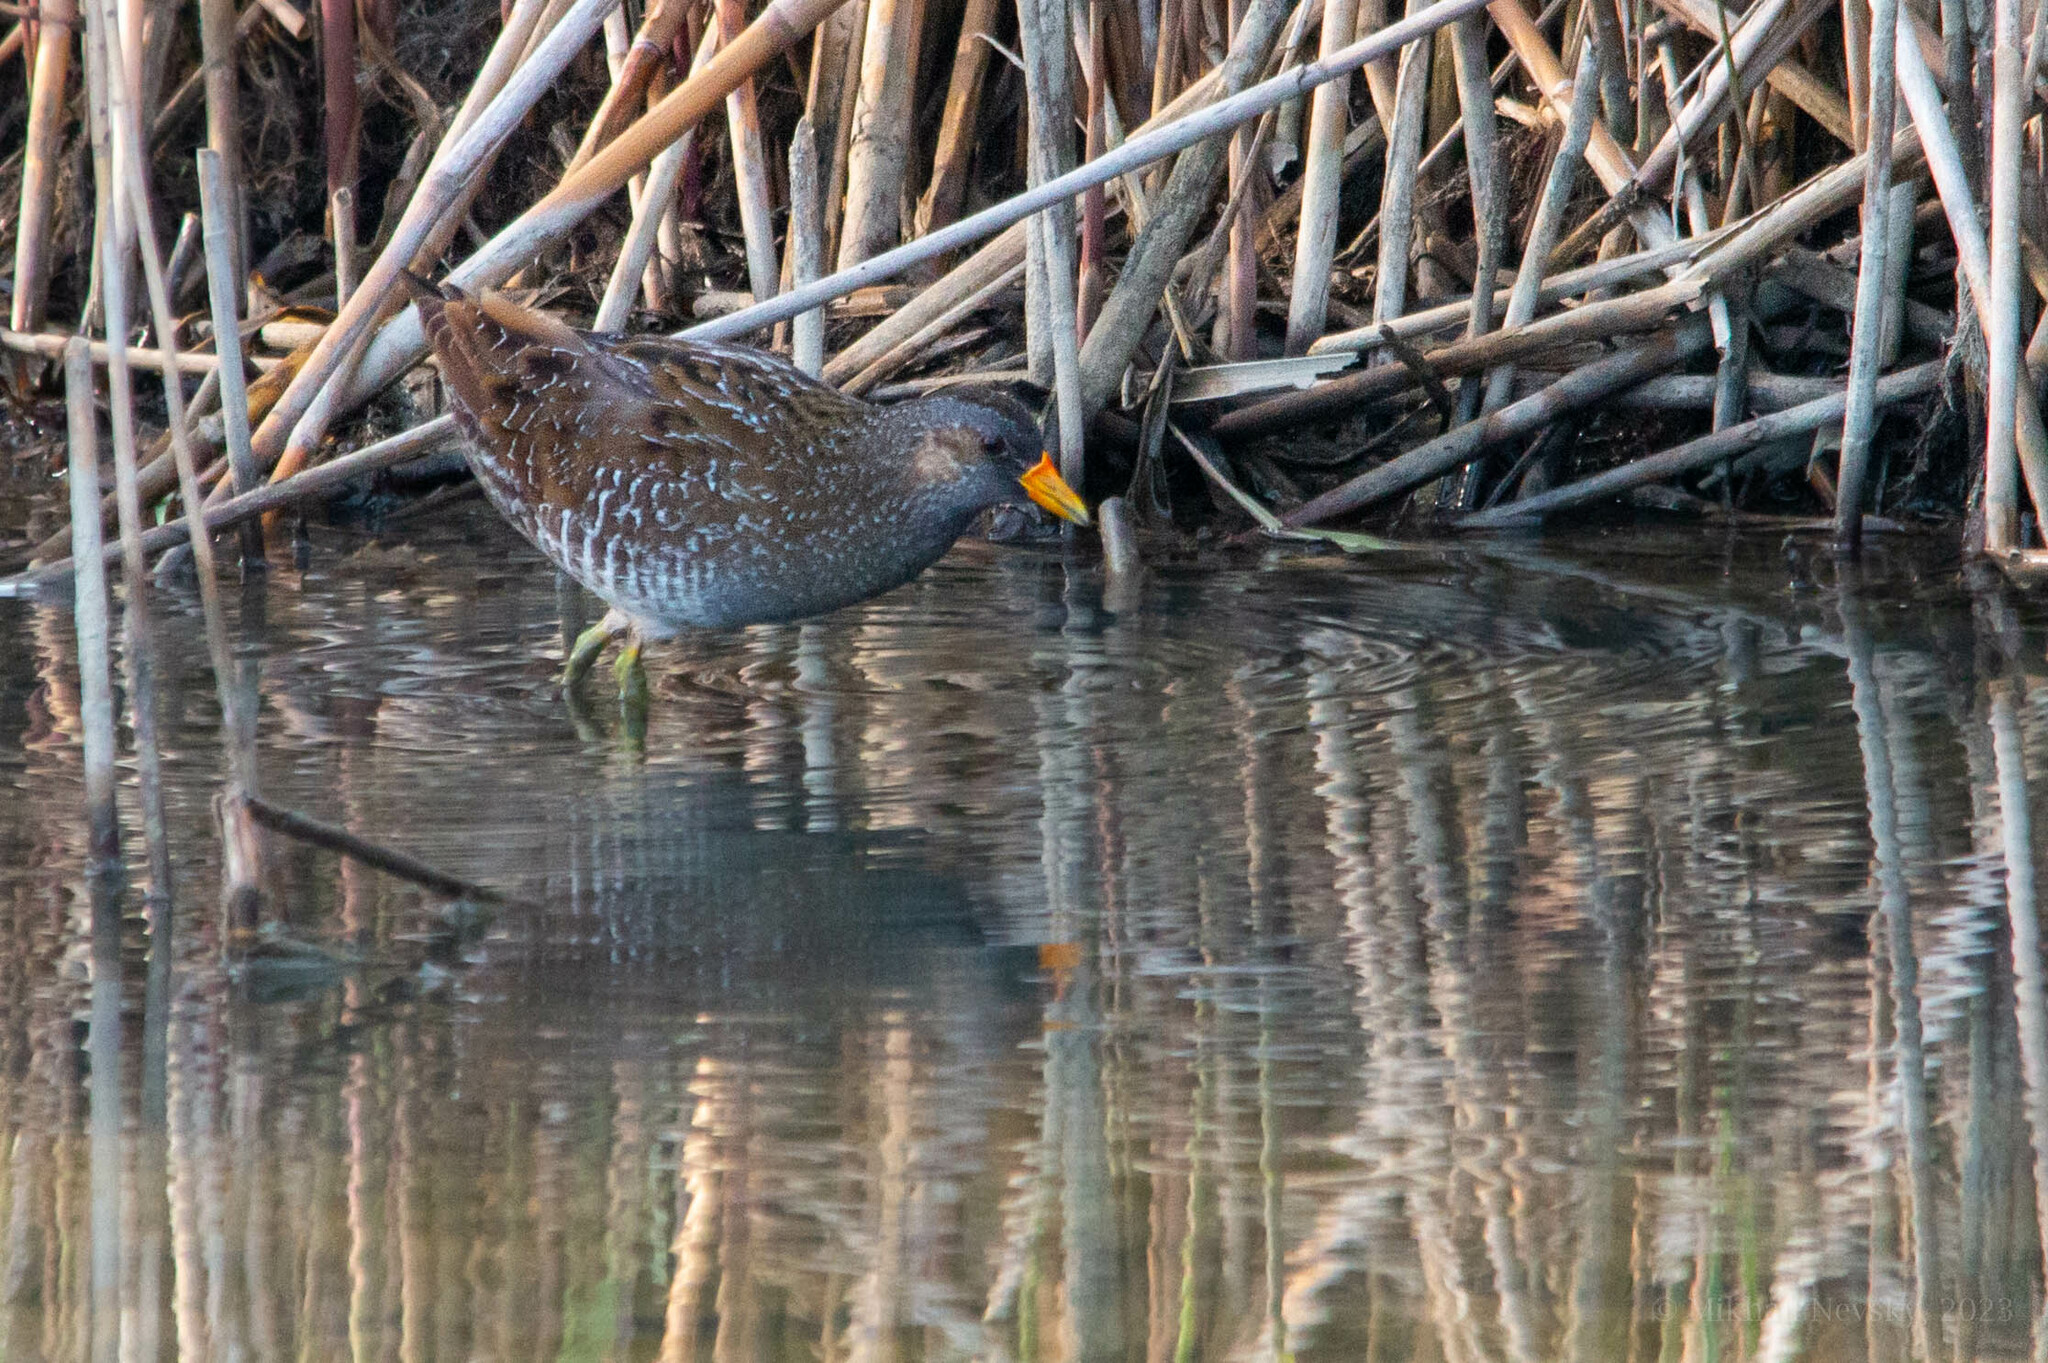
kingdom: Animalia
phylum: Chordata
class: Aves
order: Gruiformes
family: Rallidae
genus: Porzana
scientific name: Porzana porzana
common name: Spotted crake
